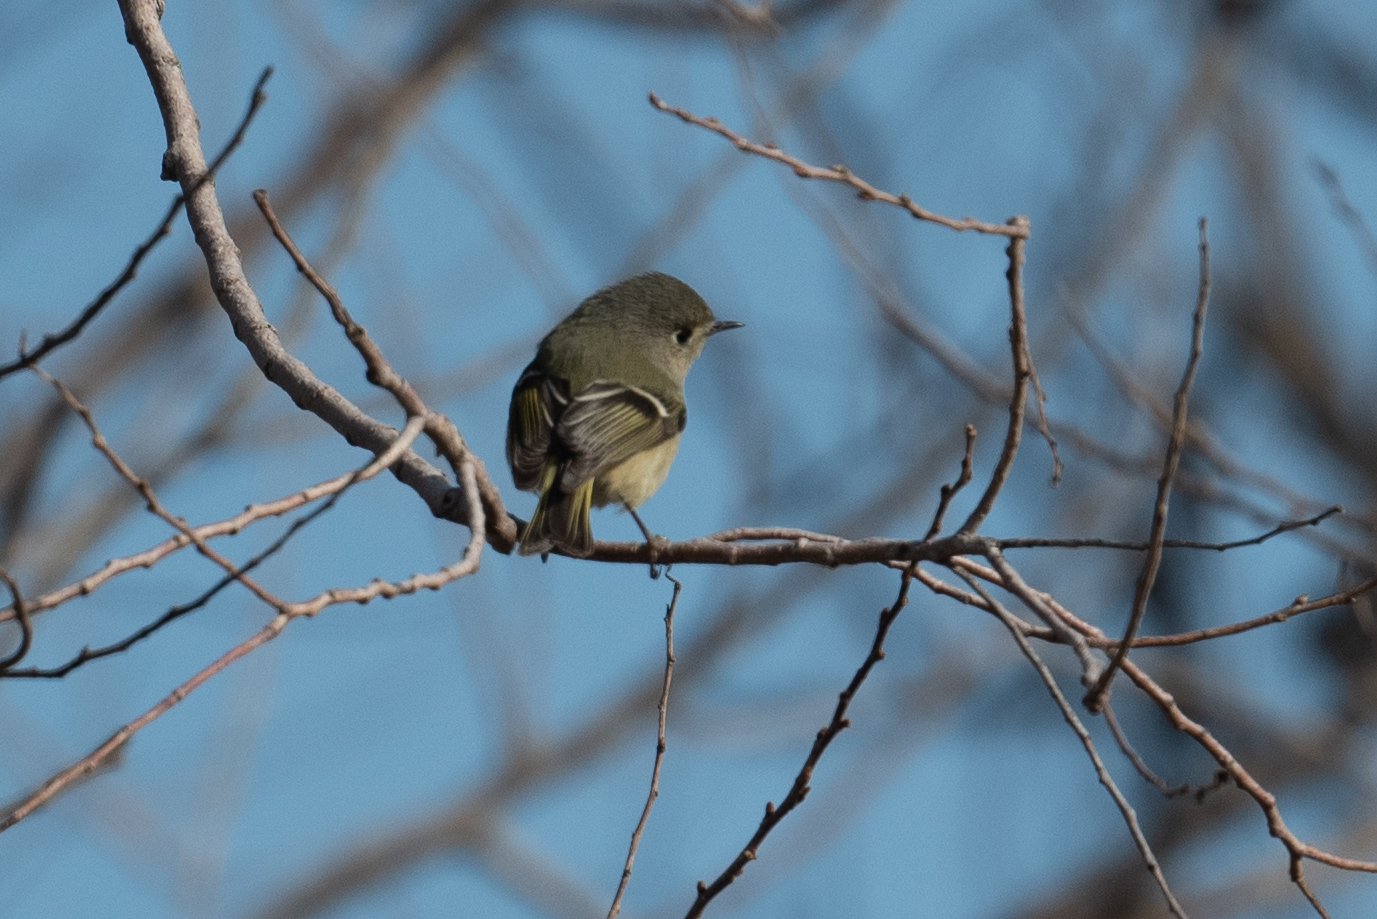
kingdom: Animalia
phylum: Chordata
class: Aves
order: Passeriformes
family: Regulidae
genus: Regulus
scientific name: Regulus calendula
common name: Ruby-crowned kinglet
